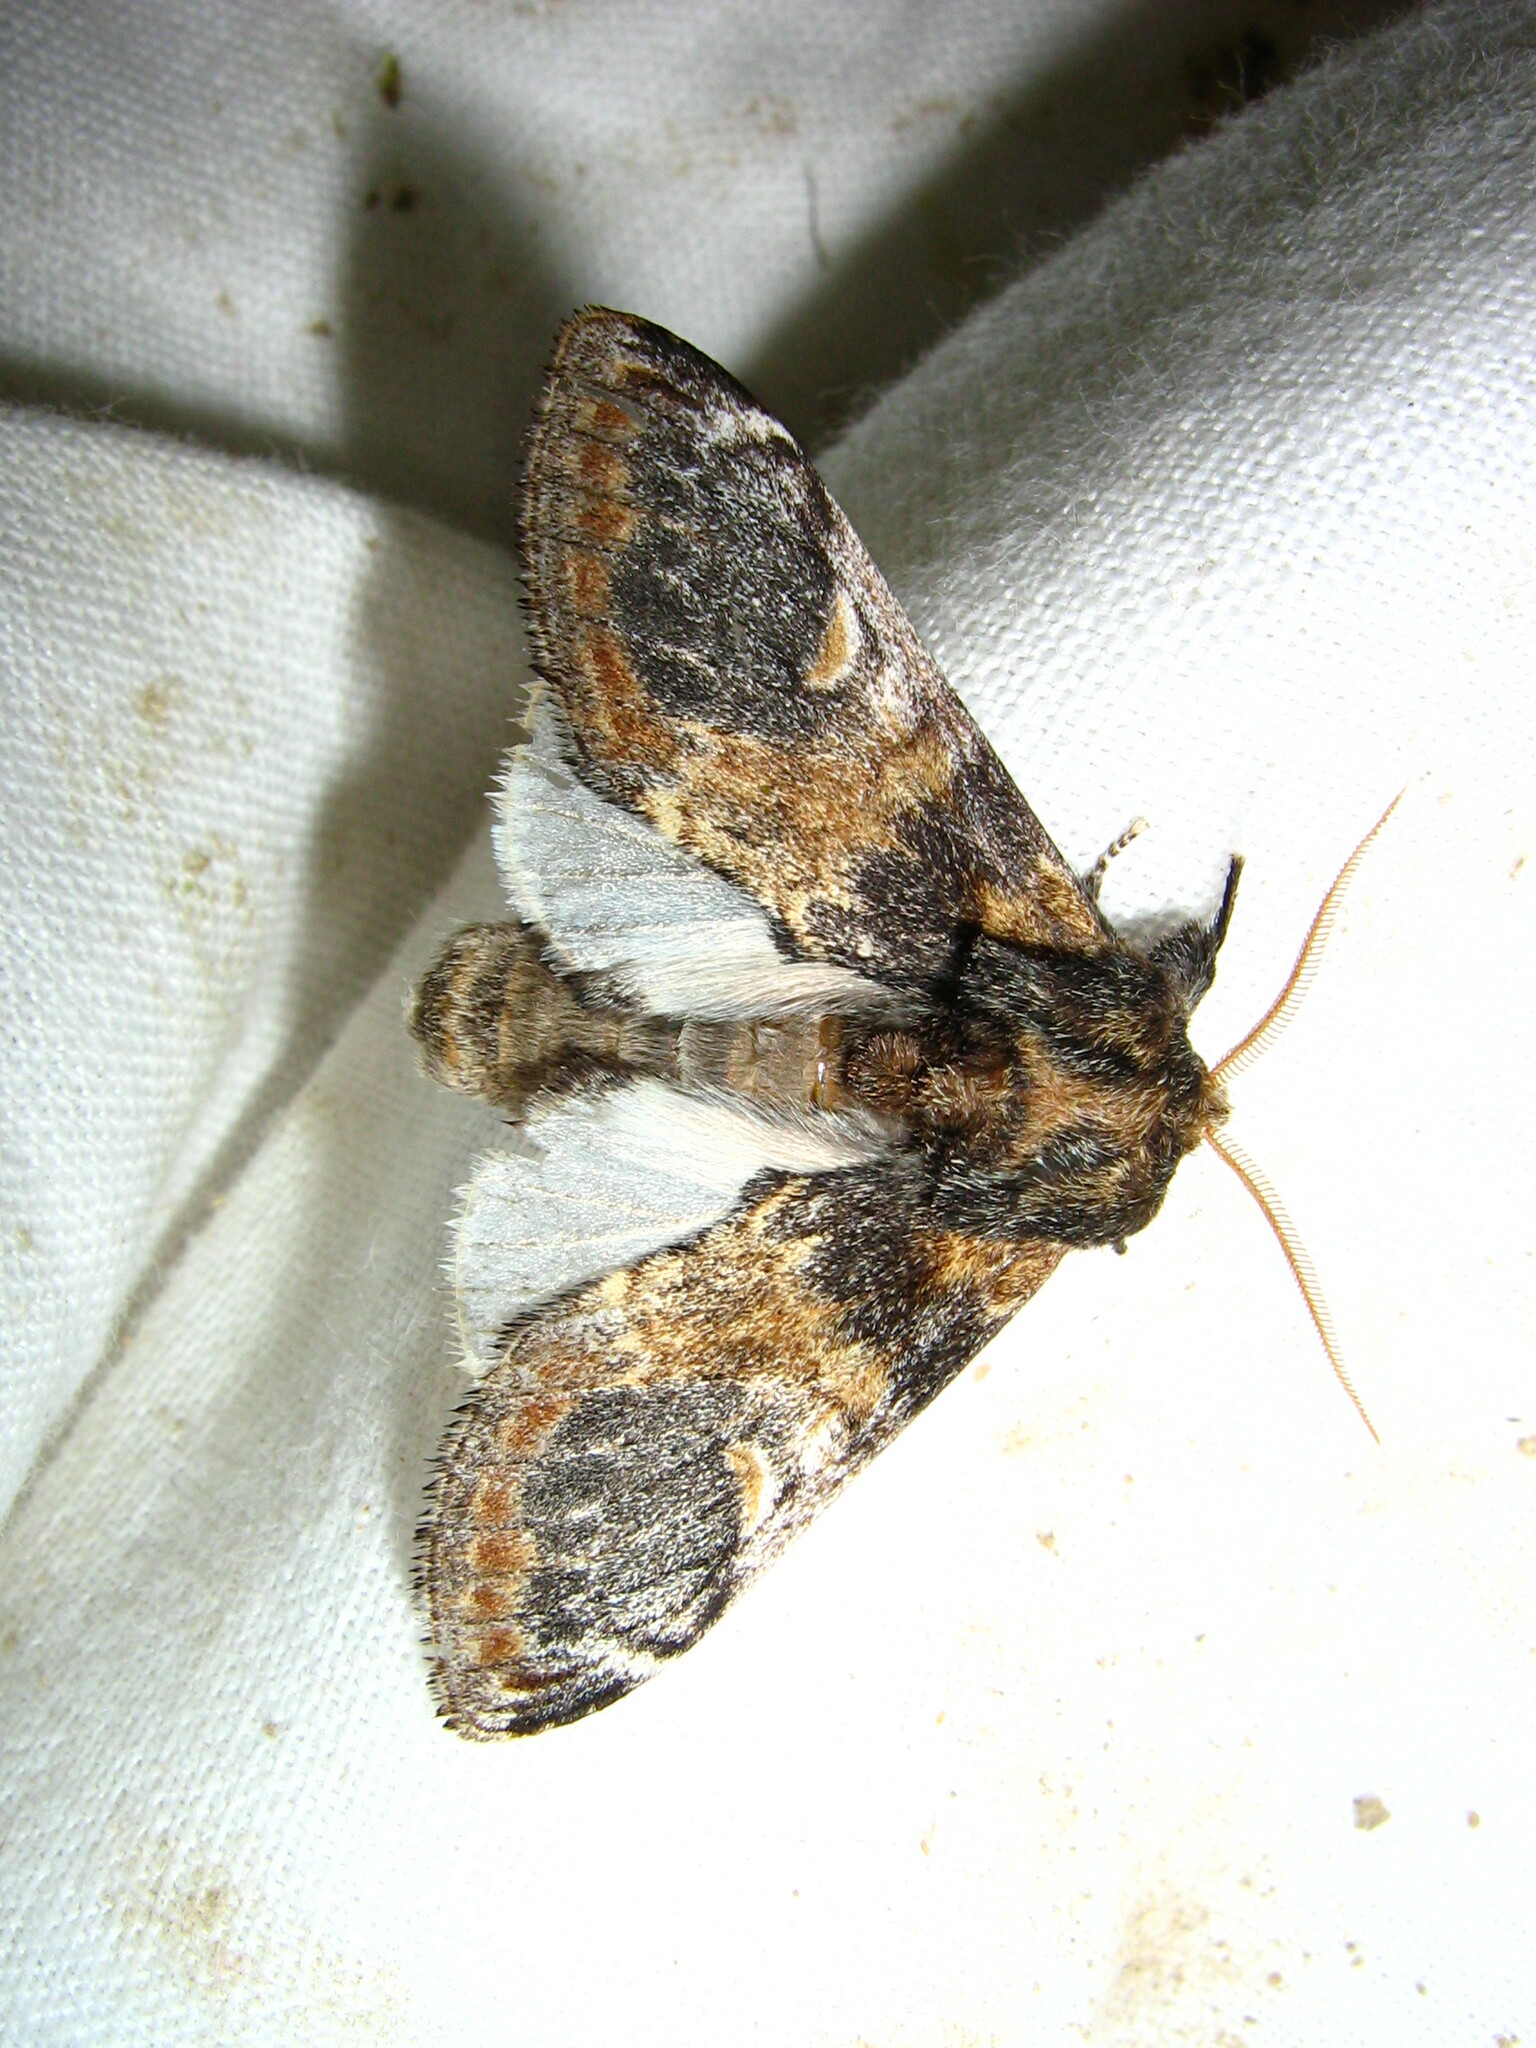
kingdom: Animalia
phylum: Arthropoda
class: Insecta
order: Lepidoptera
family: Notodontidae
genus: Notodonta
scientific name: Notodonta tritophus
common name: Three-humped prominent
